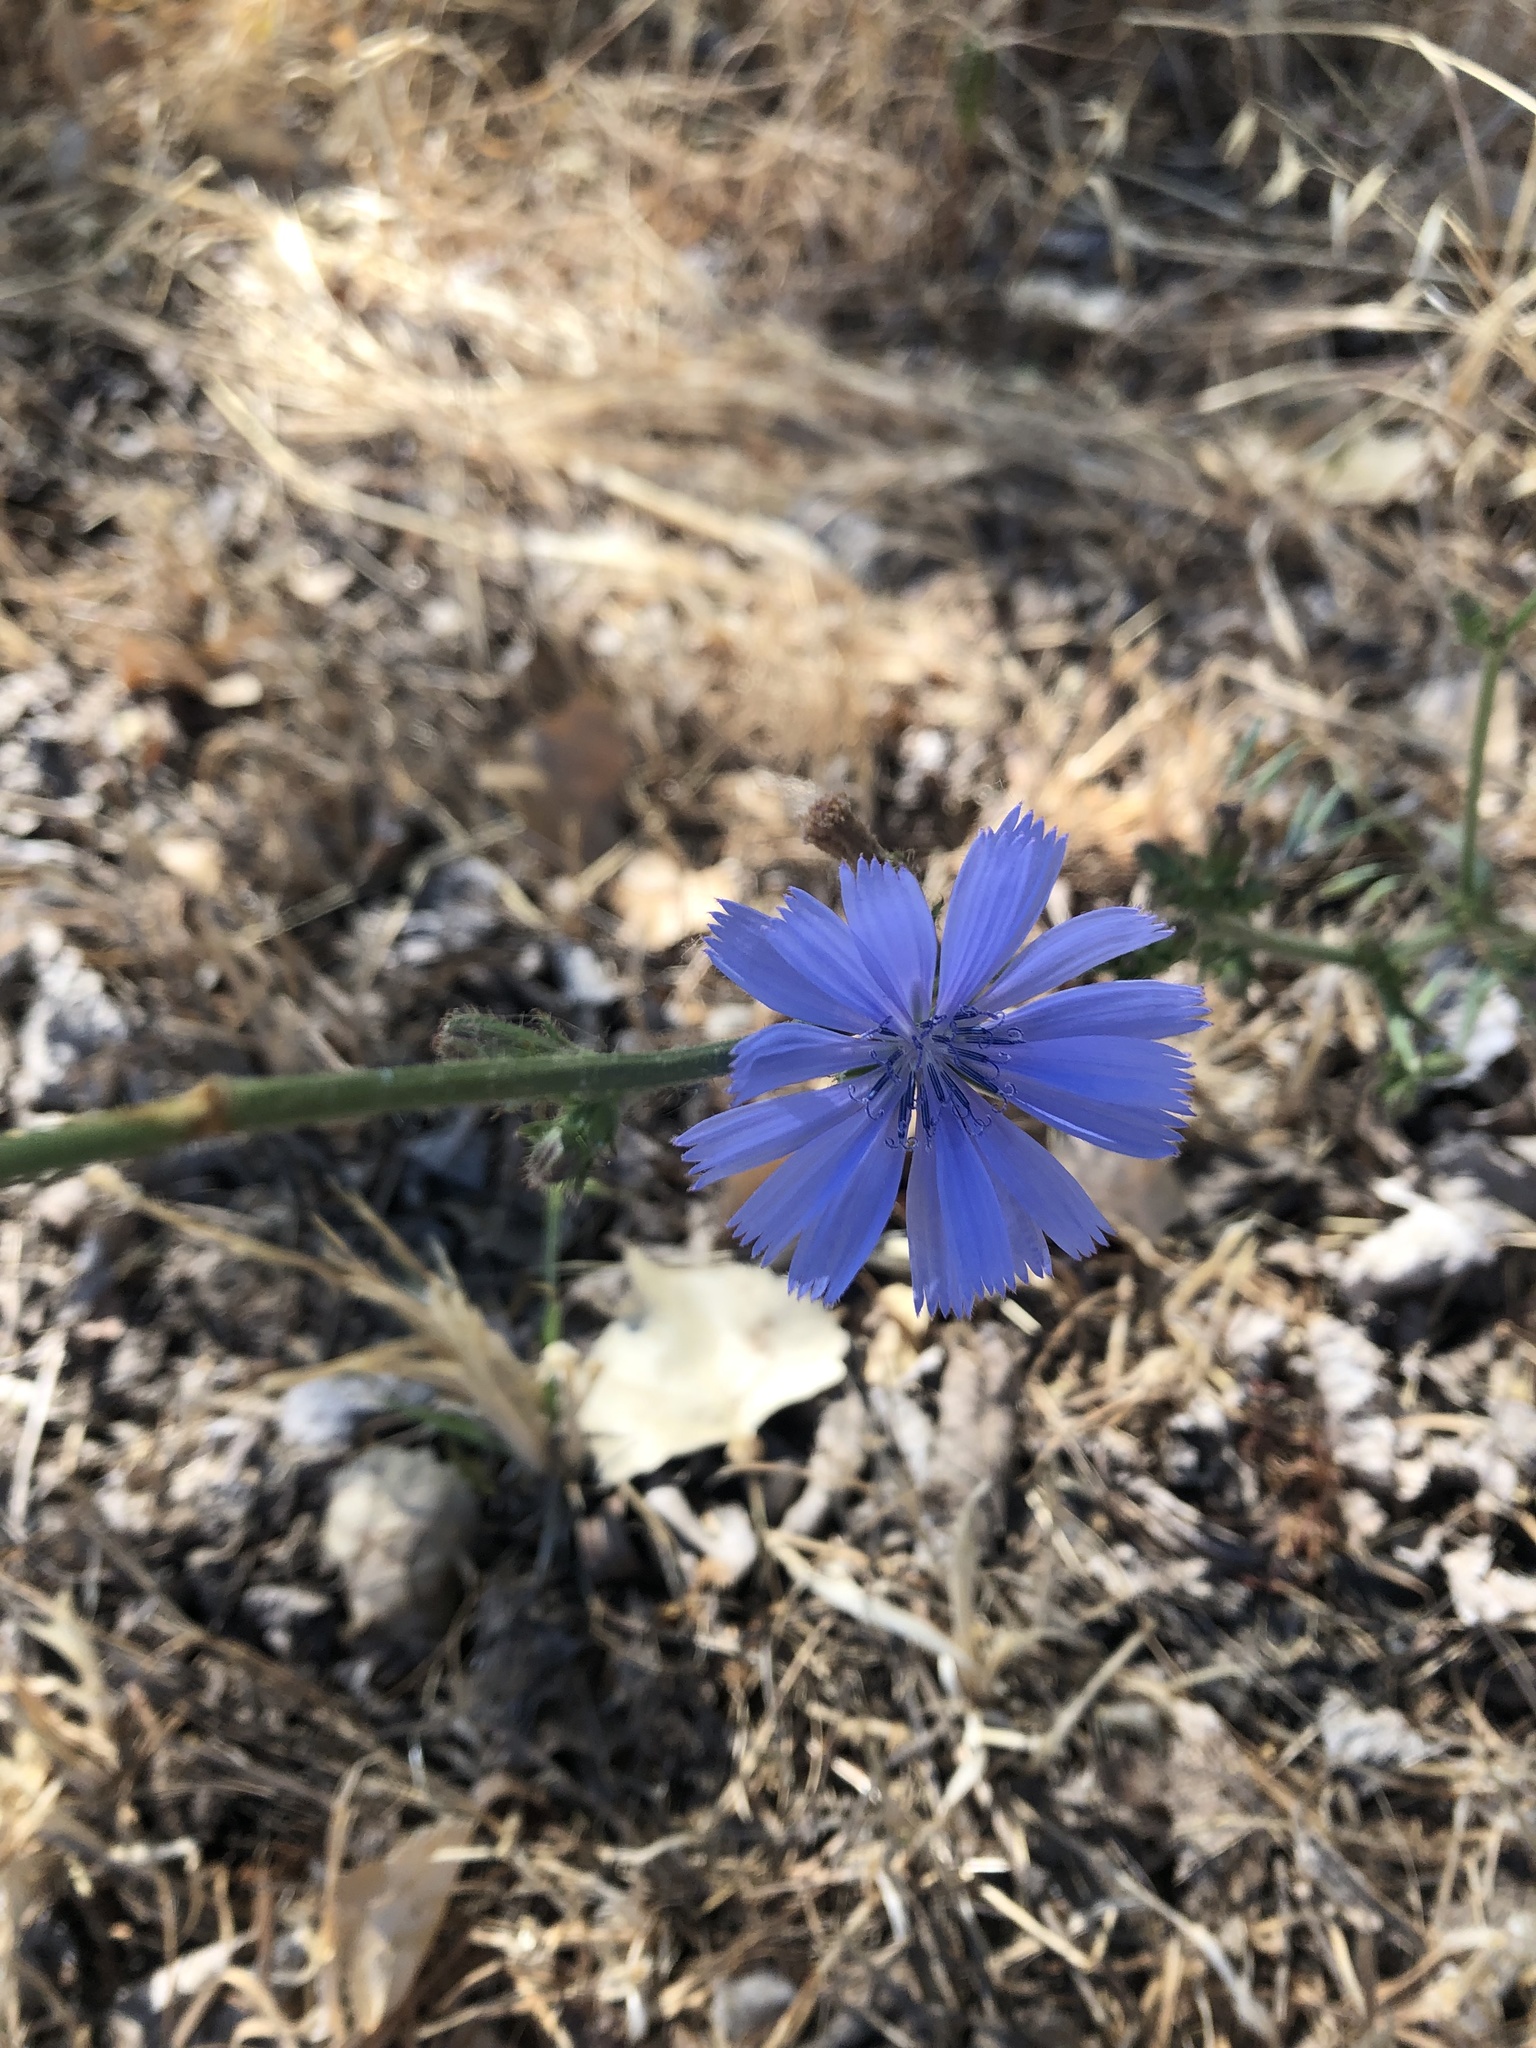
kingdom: Plantae
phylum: Tracheophyta
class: Magnoliopsida
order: Asterales
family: Asteraceae
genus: Cichorium
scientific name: Cichorium intybus
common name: Chicory
